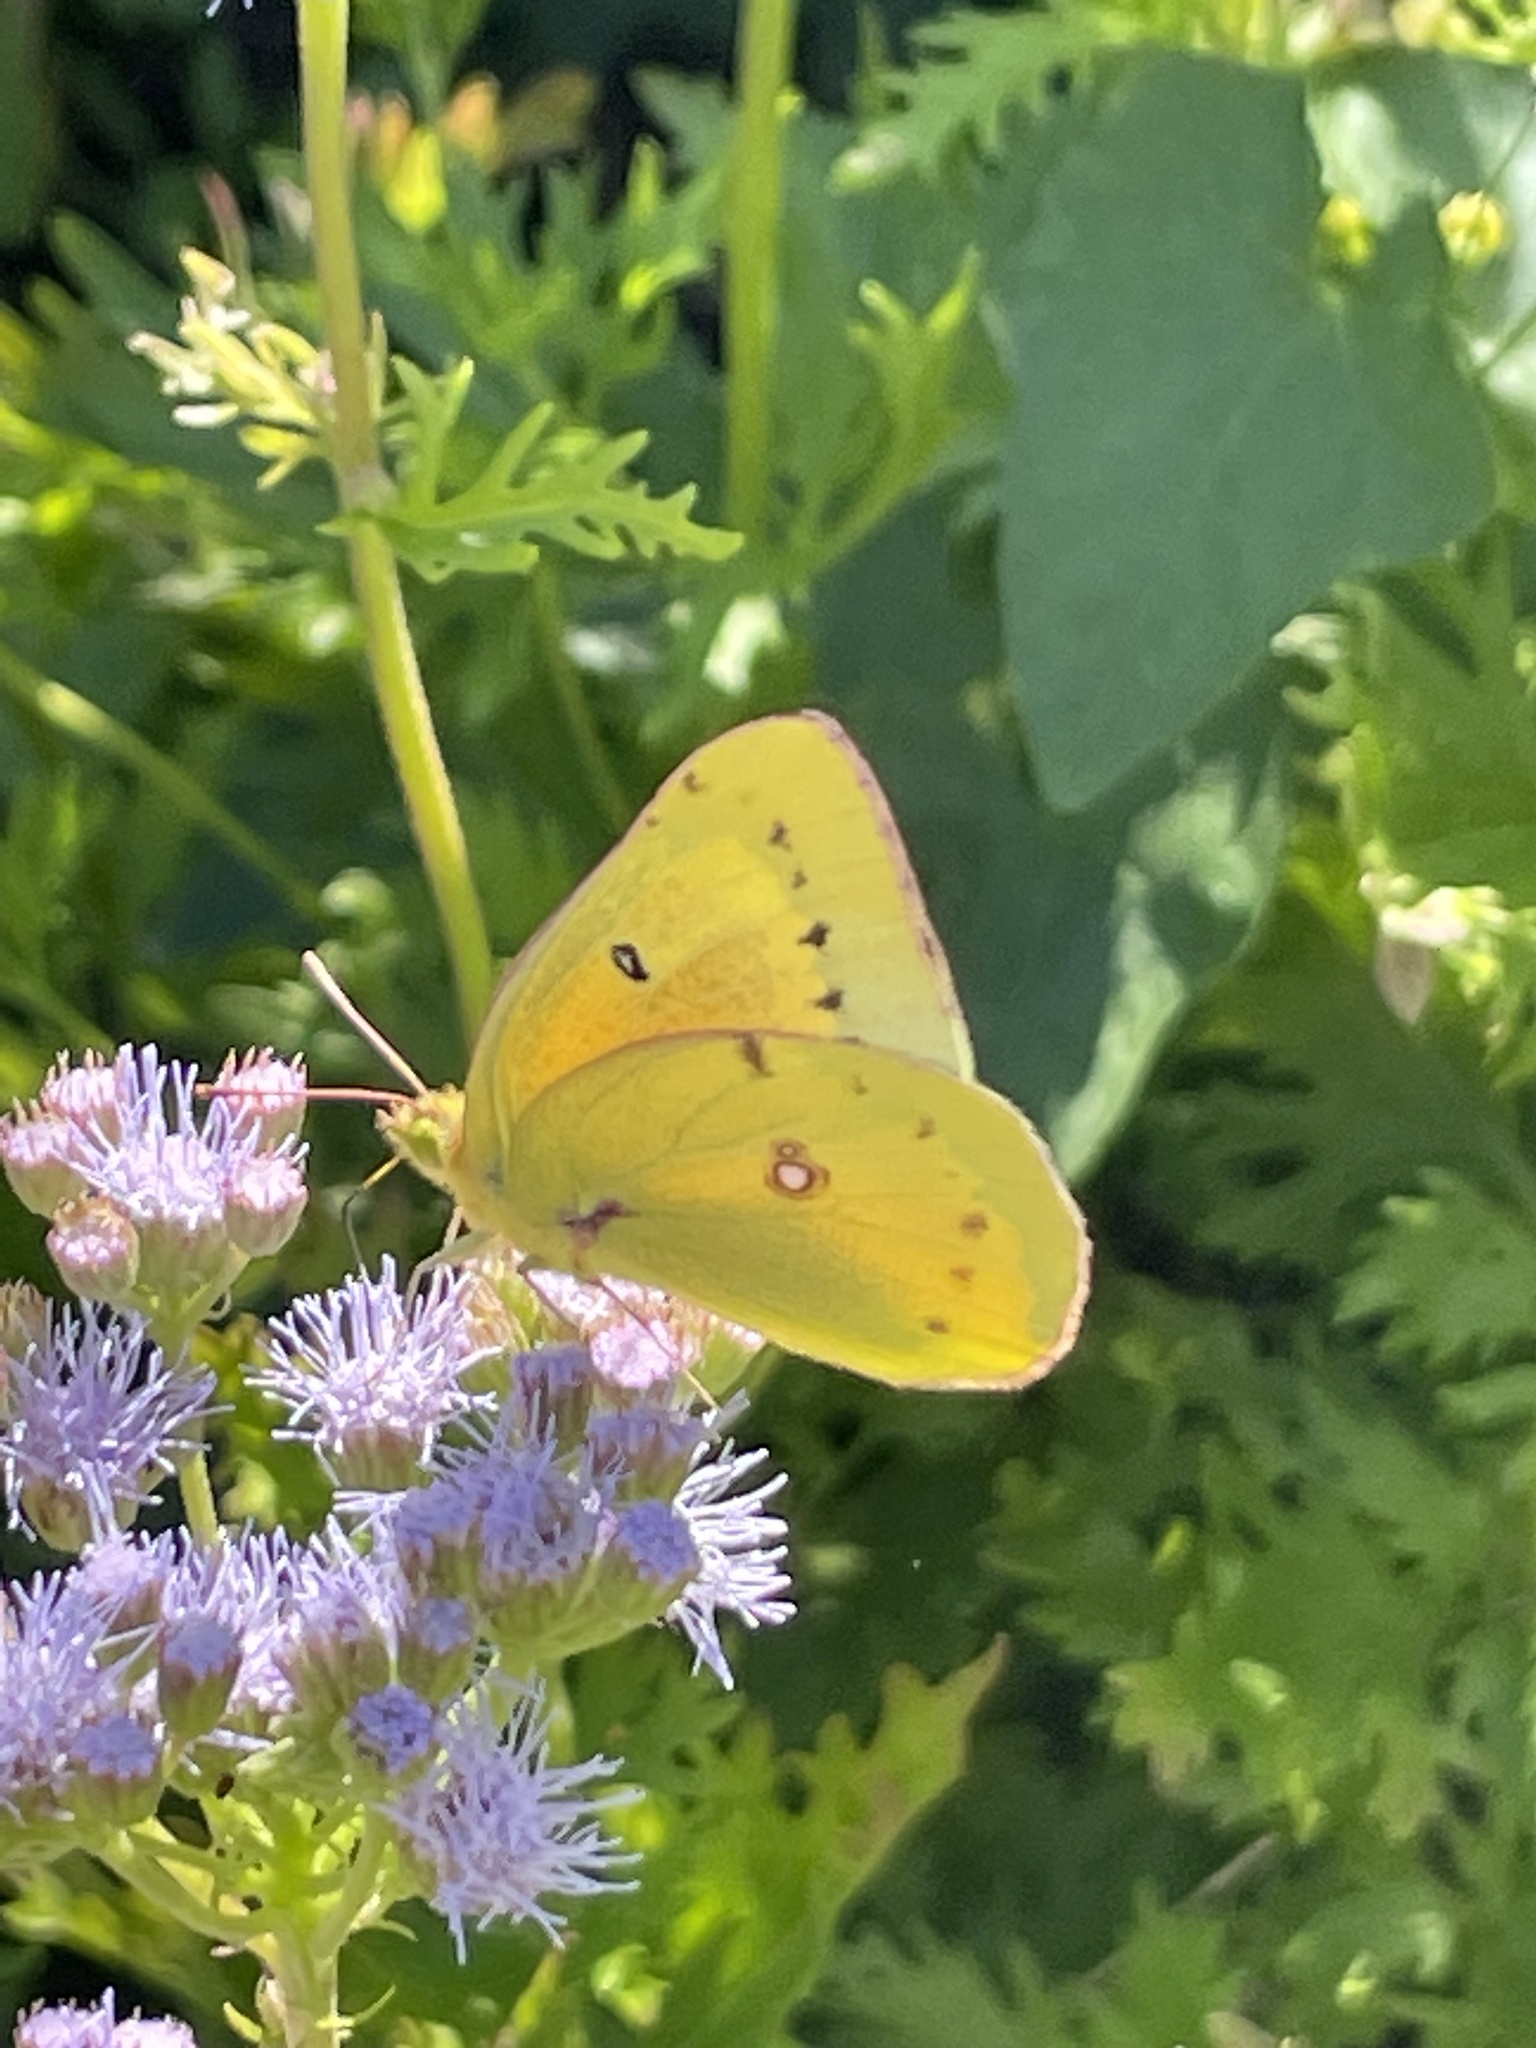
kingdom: Animalia
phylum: Arthropoda
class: Insecta
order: Lepidoptera
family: Pieridae
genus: Colias
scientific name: Colias eurytheme
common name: Alfalfa butterfly
